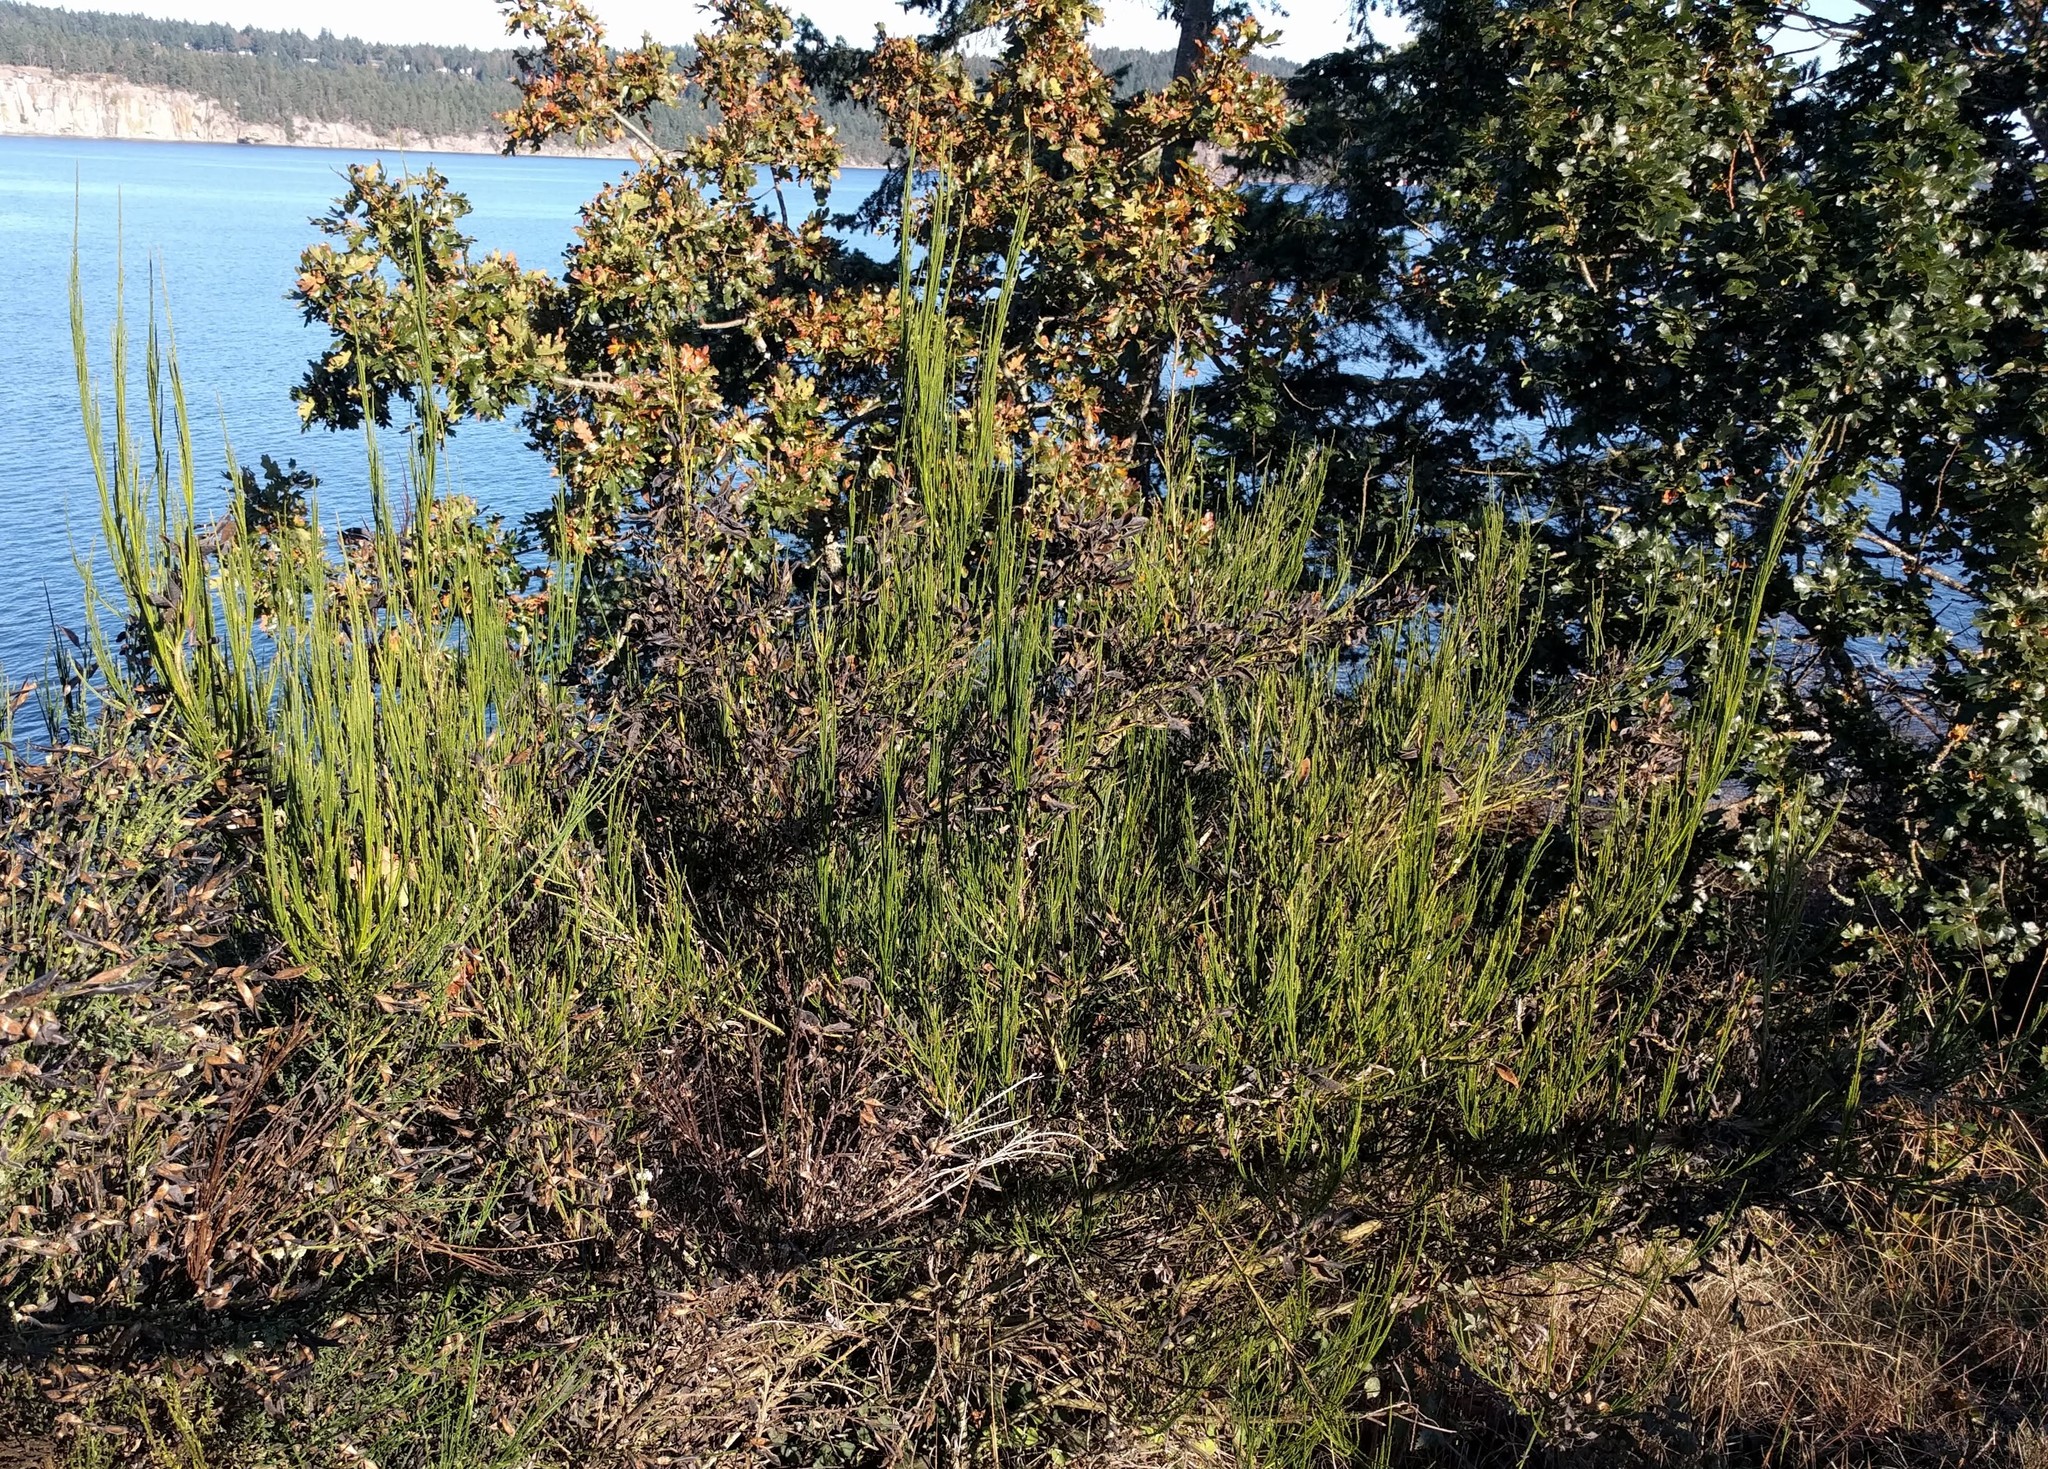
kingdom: Plantae
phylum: Tracheophyta
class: Magnoliopsida
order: Fabales
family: Fabaceae
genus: Cytisus
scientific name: Cytisus scoparius
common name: Scotch broom
